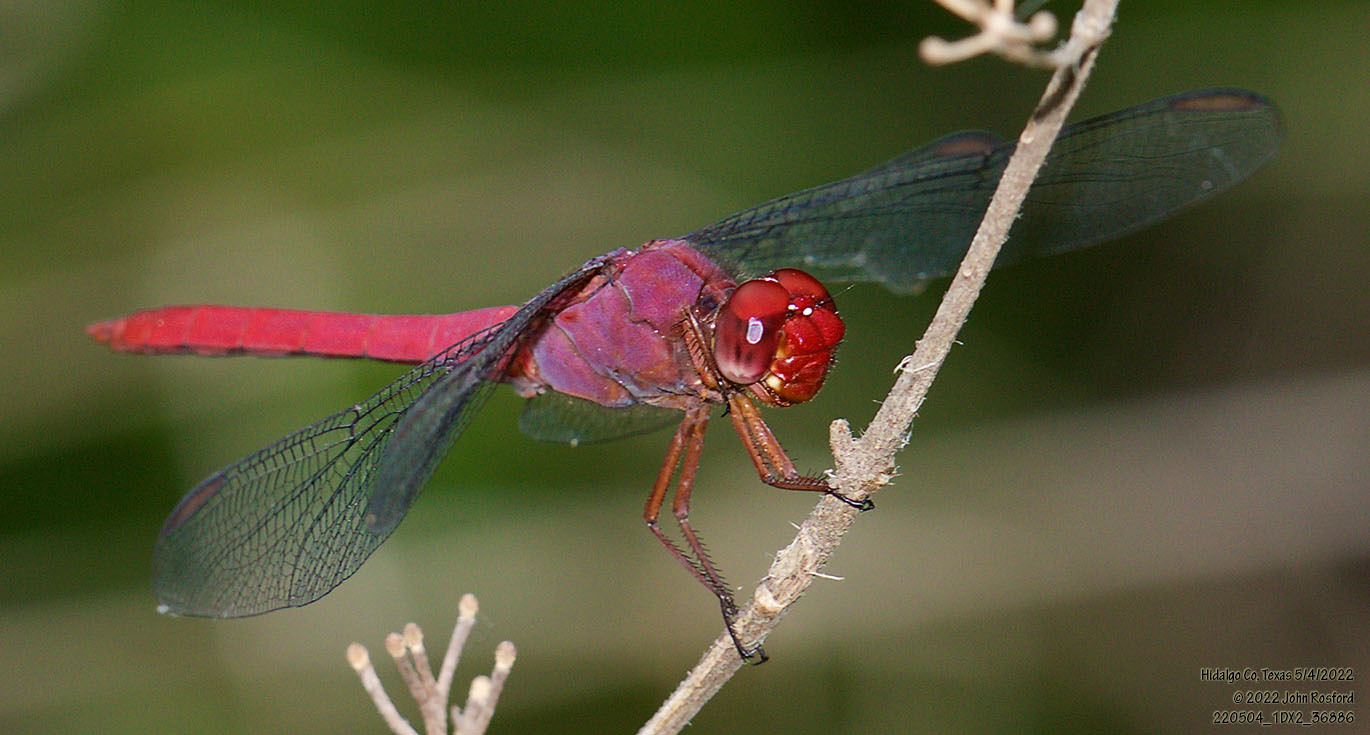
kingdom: Animalia
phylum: Arthropoda
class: Insecta
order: Odonata
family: Libellulidae
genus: Orthemis
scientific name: Orthemis discolor
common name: Carmine skimmer
